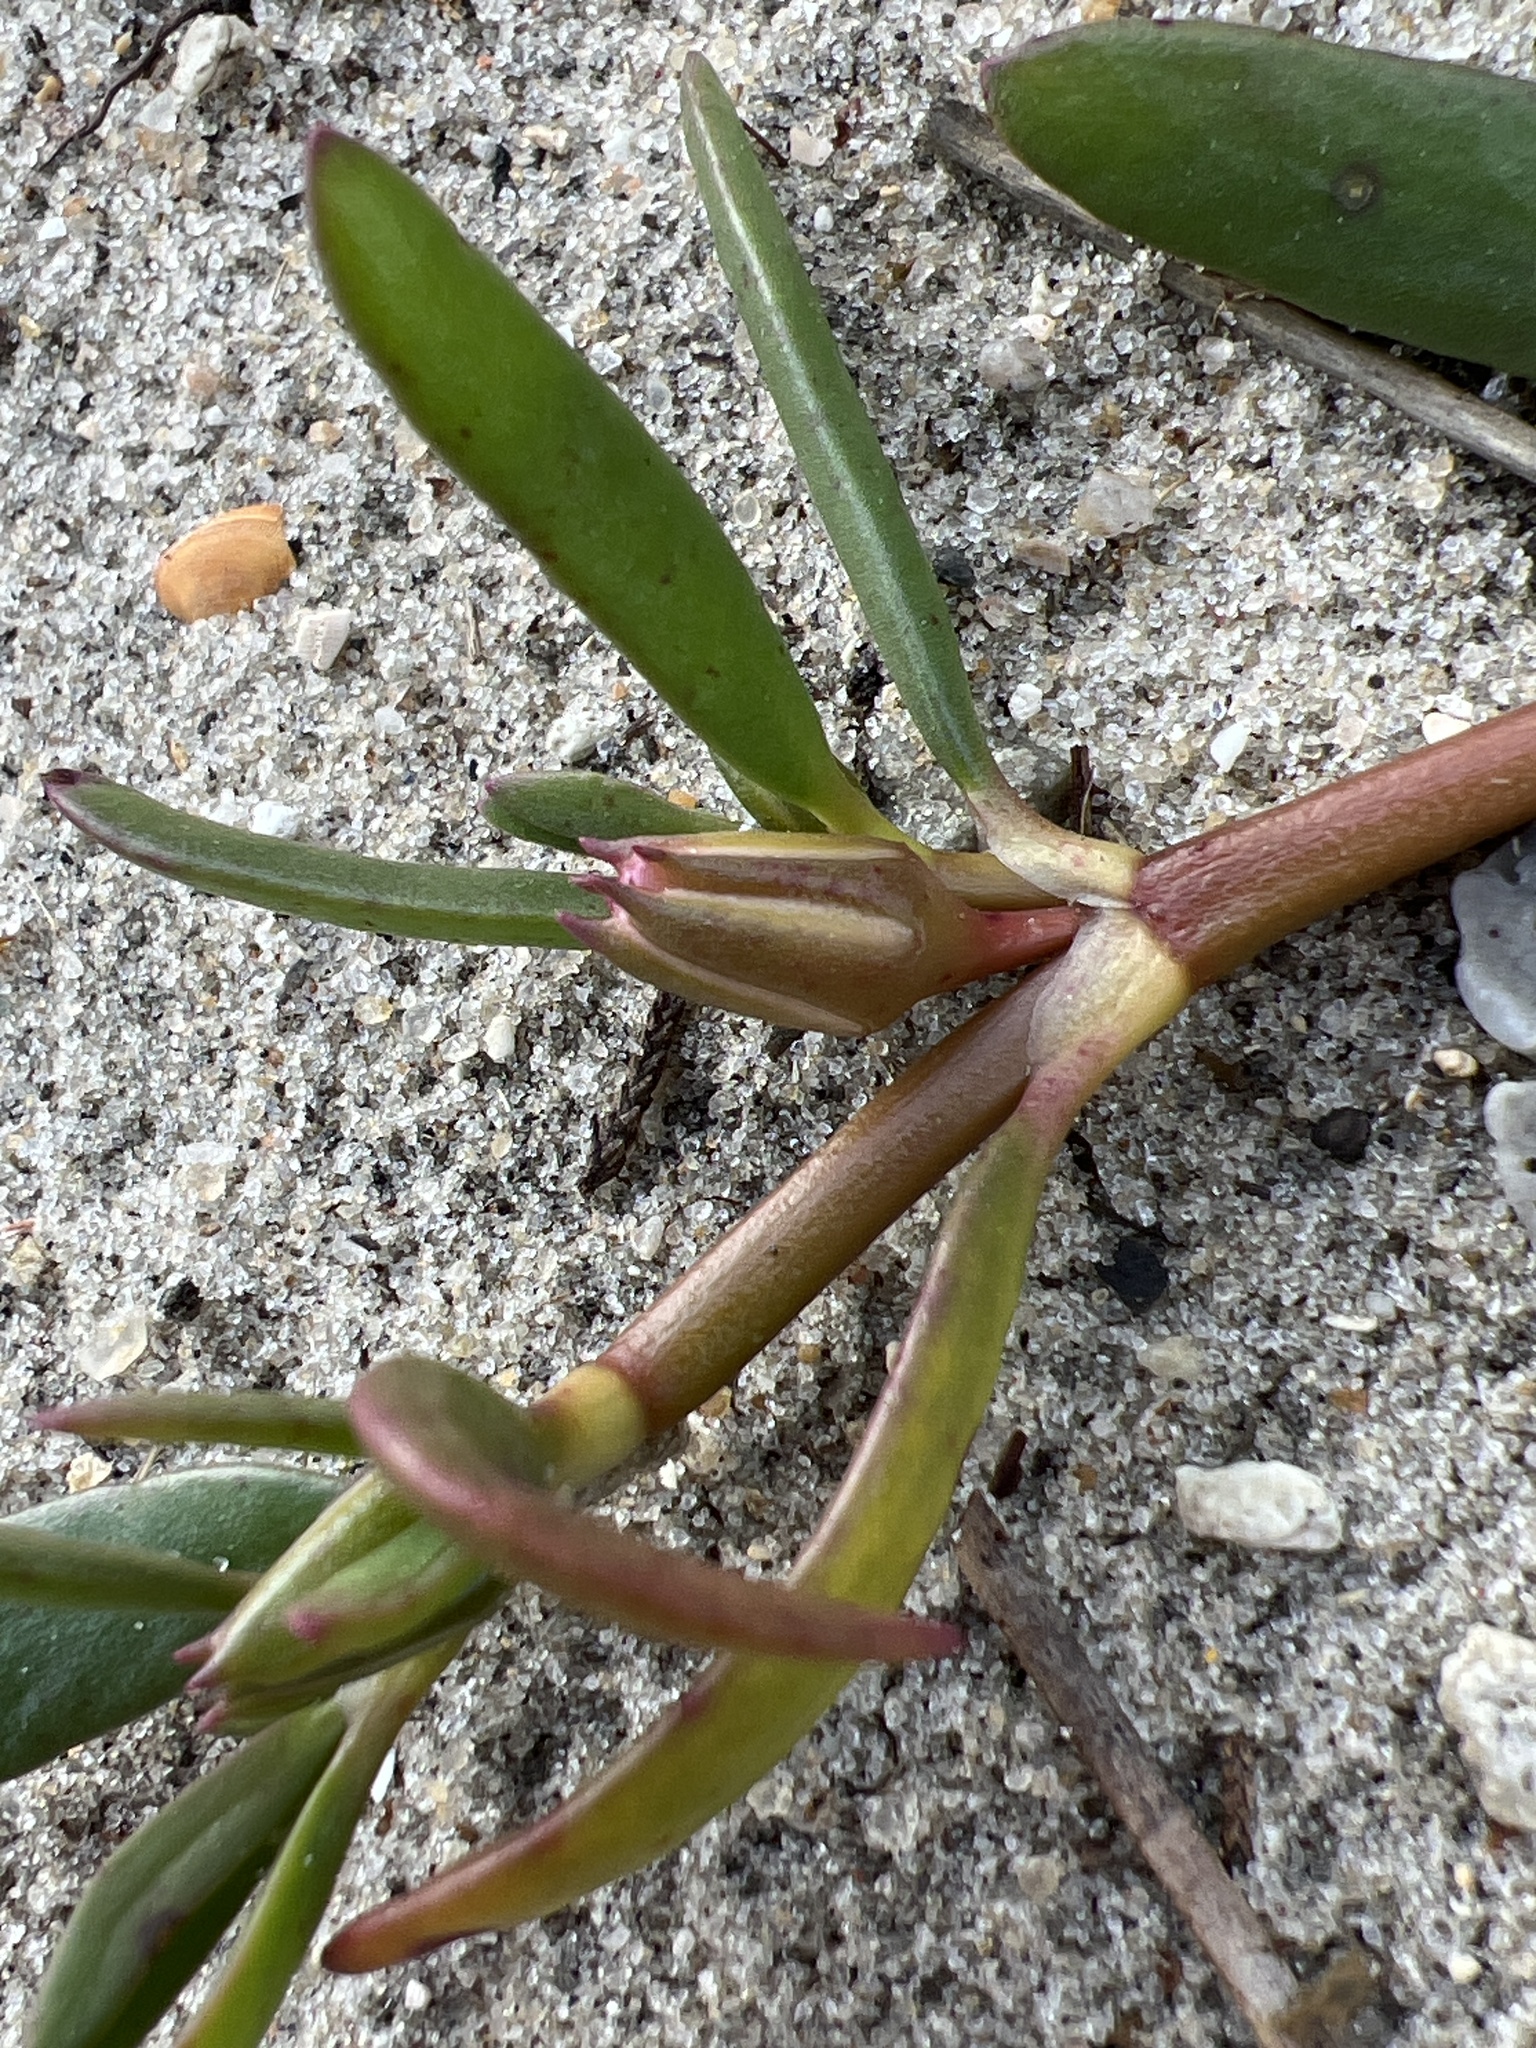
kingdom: Plantae
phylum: Tracheophyta
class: Magnoliopsida
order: Caryophyllales
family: Aizoaceae
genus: Sesuvium
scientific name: Sesuvium portulacastrum
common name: Sea-purslane
